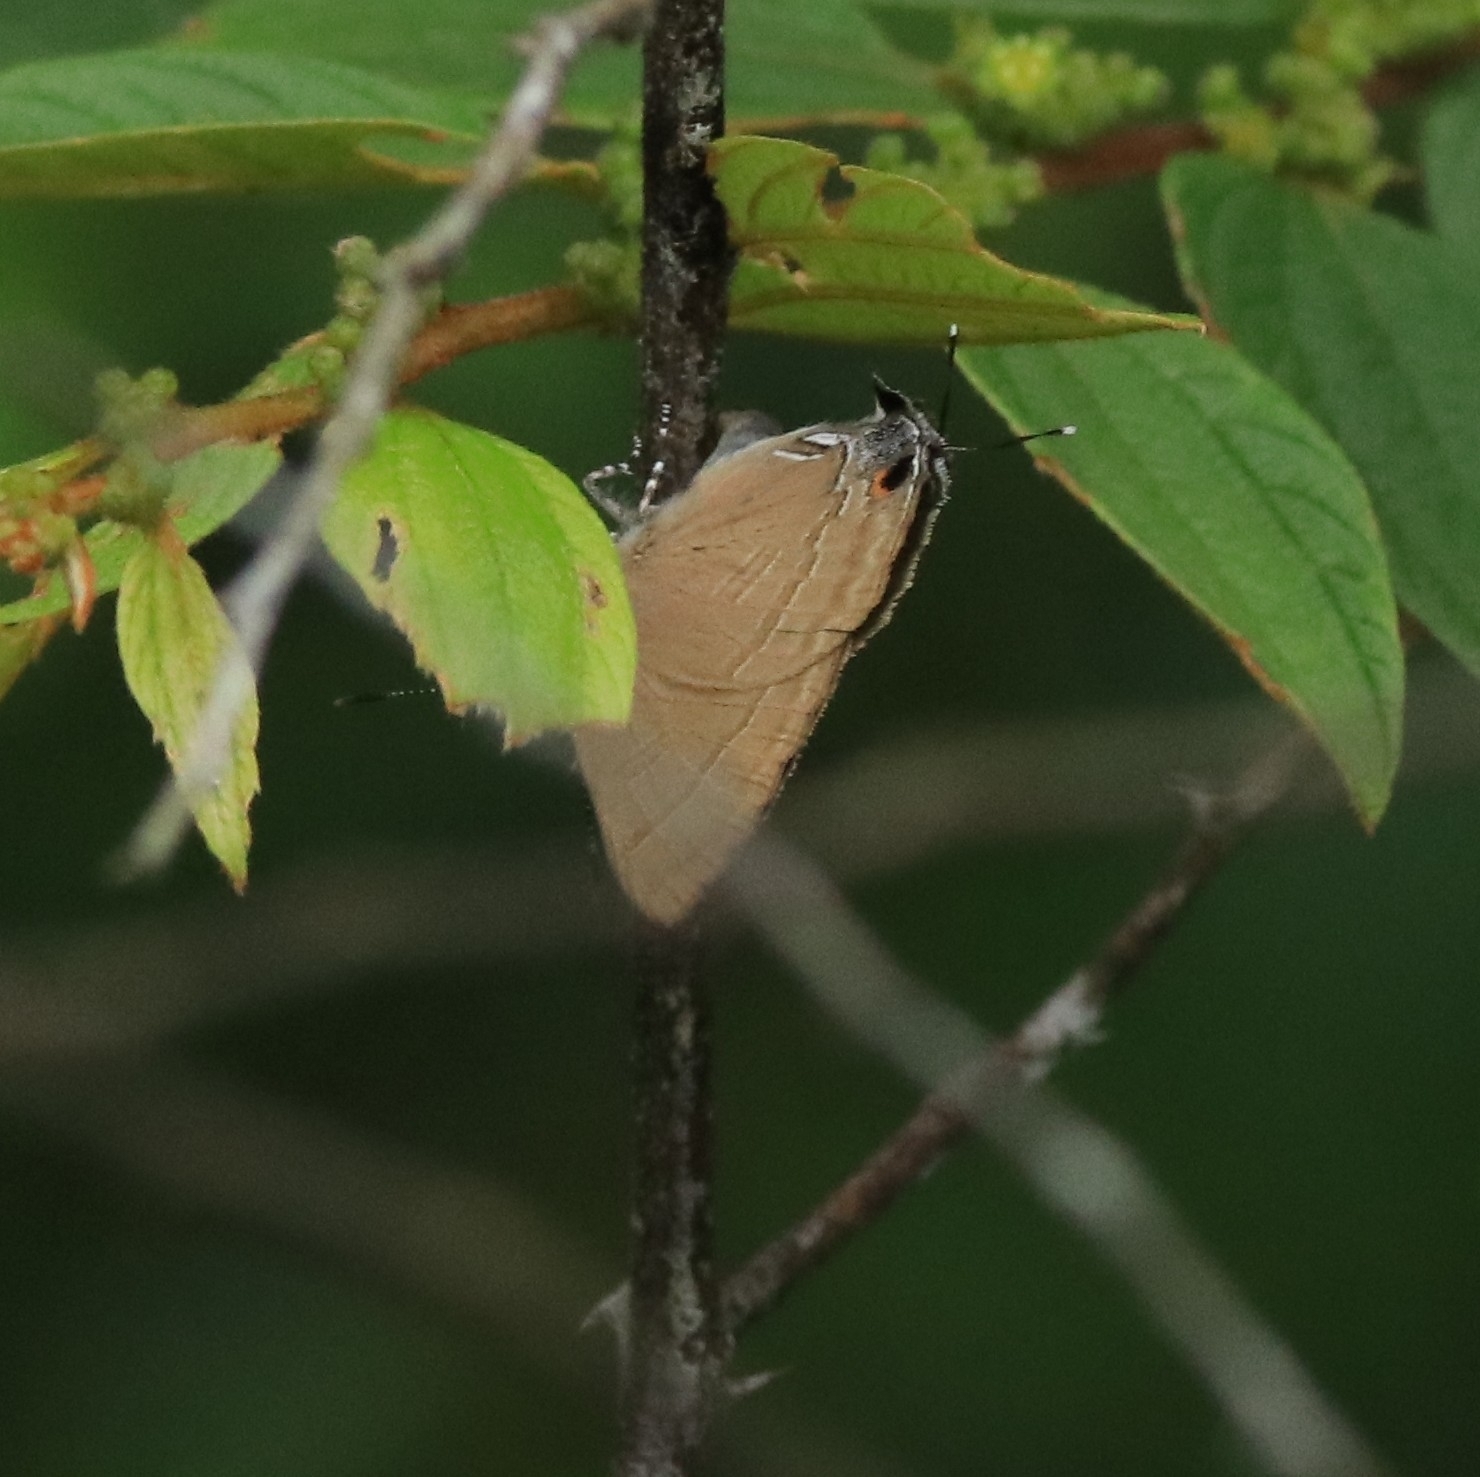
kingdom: Animalia
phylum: Arthropoda
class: Insecta
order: Lepidoptera
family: Lycaenidae
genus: Rapala
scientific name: Rapala manea
